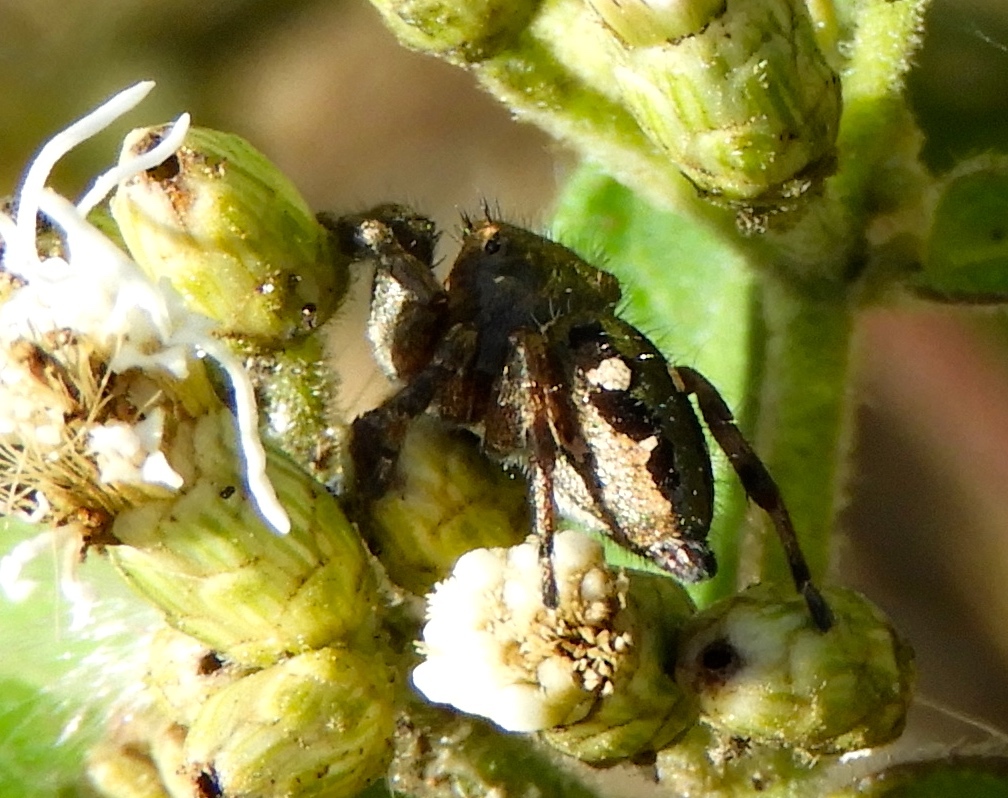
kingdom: Animalia
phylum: Arthropoda
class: Arachnida
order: Araneae
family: Salticidae
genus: Dendryphantes
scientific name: Dendryphantes zygoballoides
